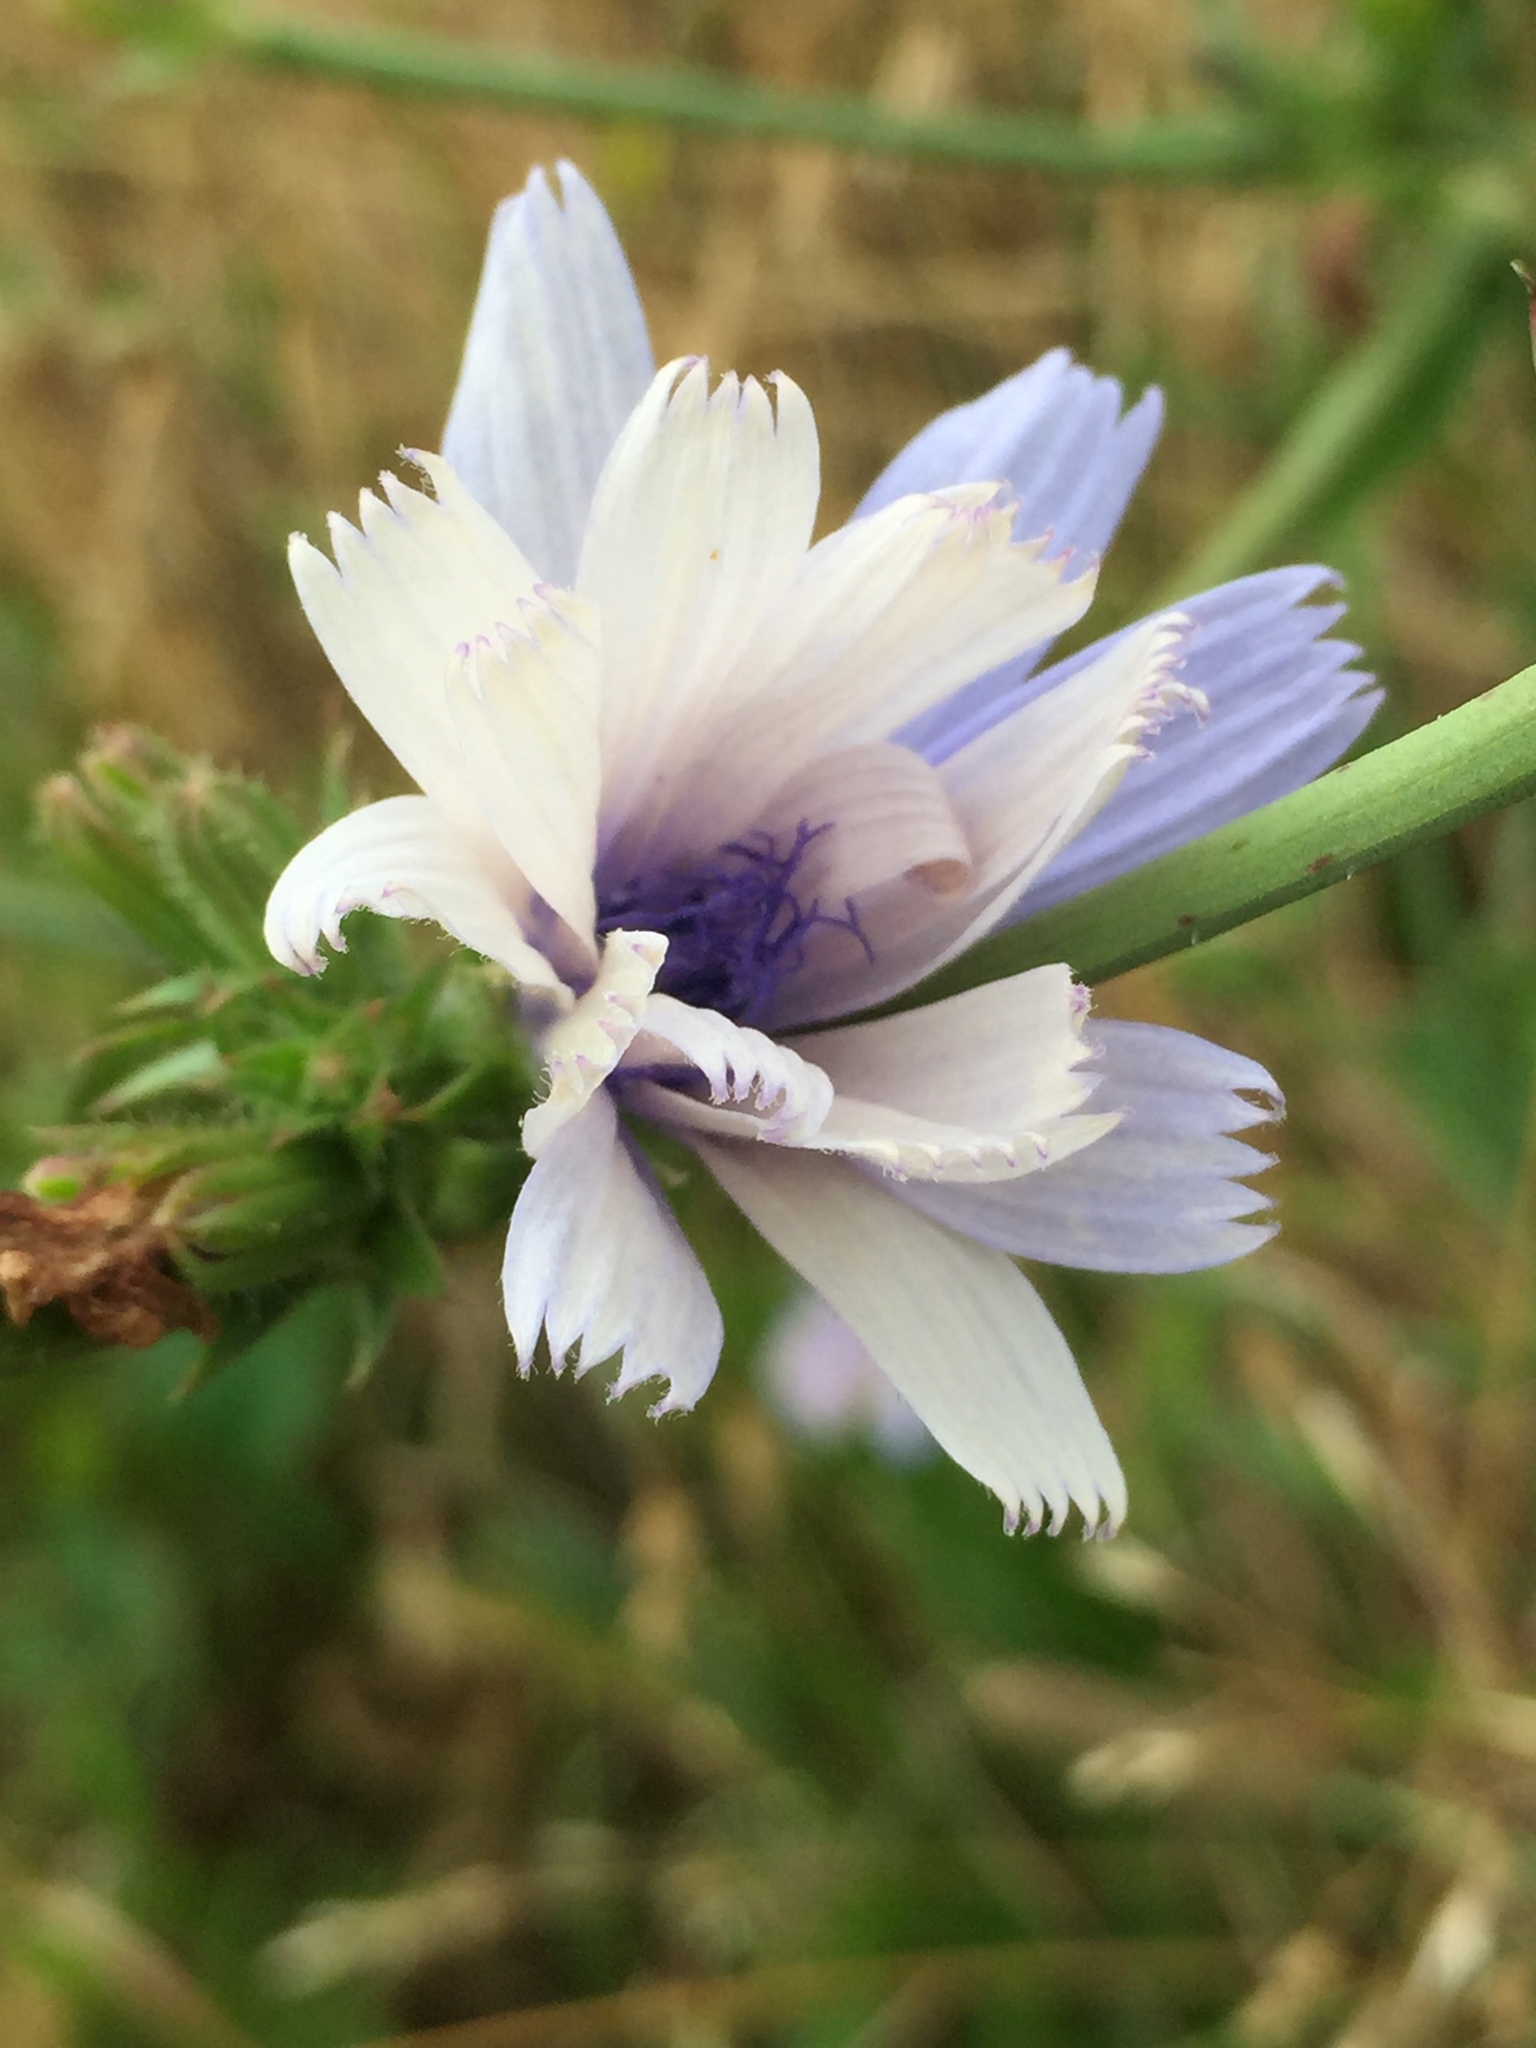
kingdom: Plantae
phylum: Tracheophyta
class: Magnoliopsida
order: Asterales
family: Asteraceae
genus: Cichorium
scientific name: Cichorium intybus
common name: Chicory
